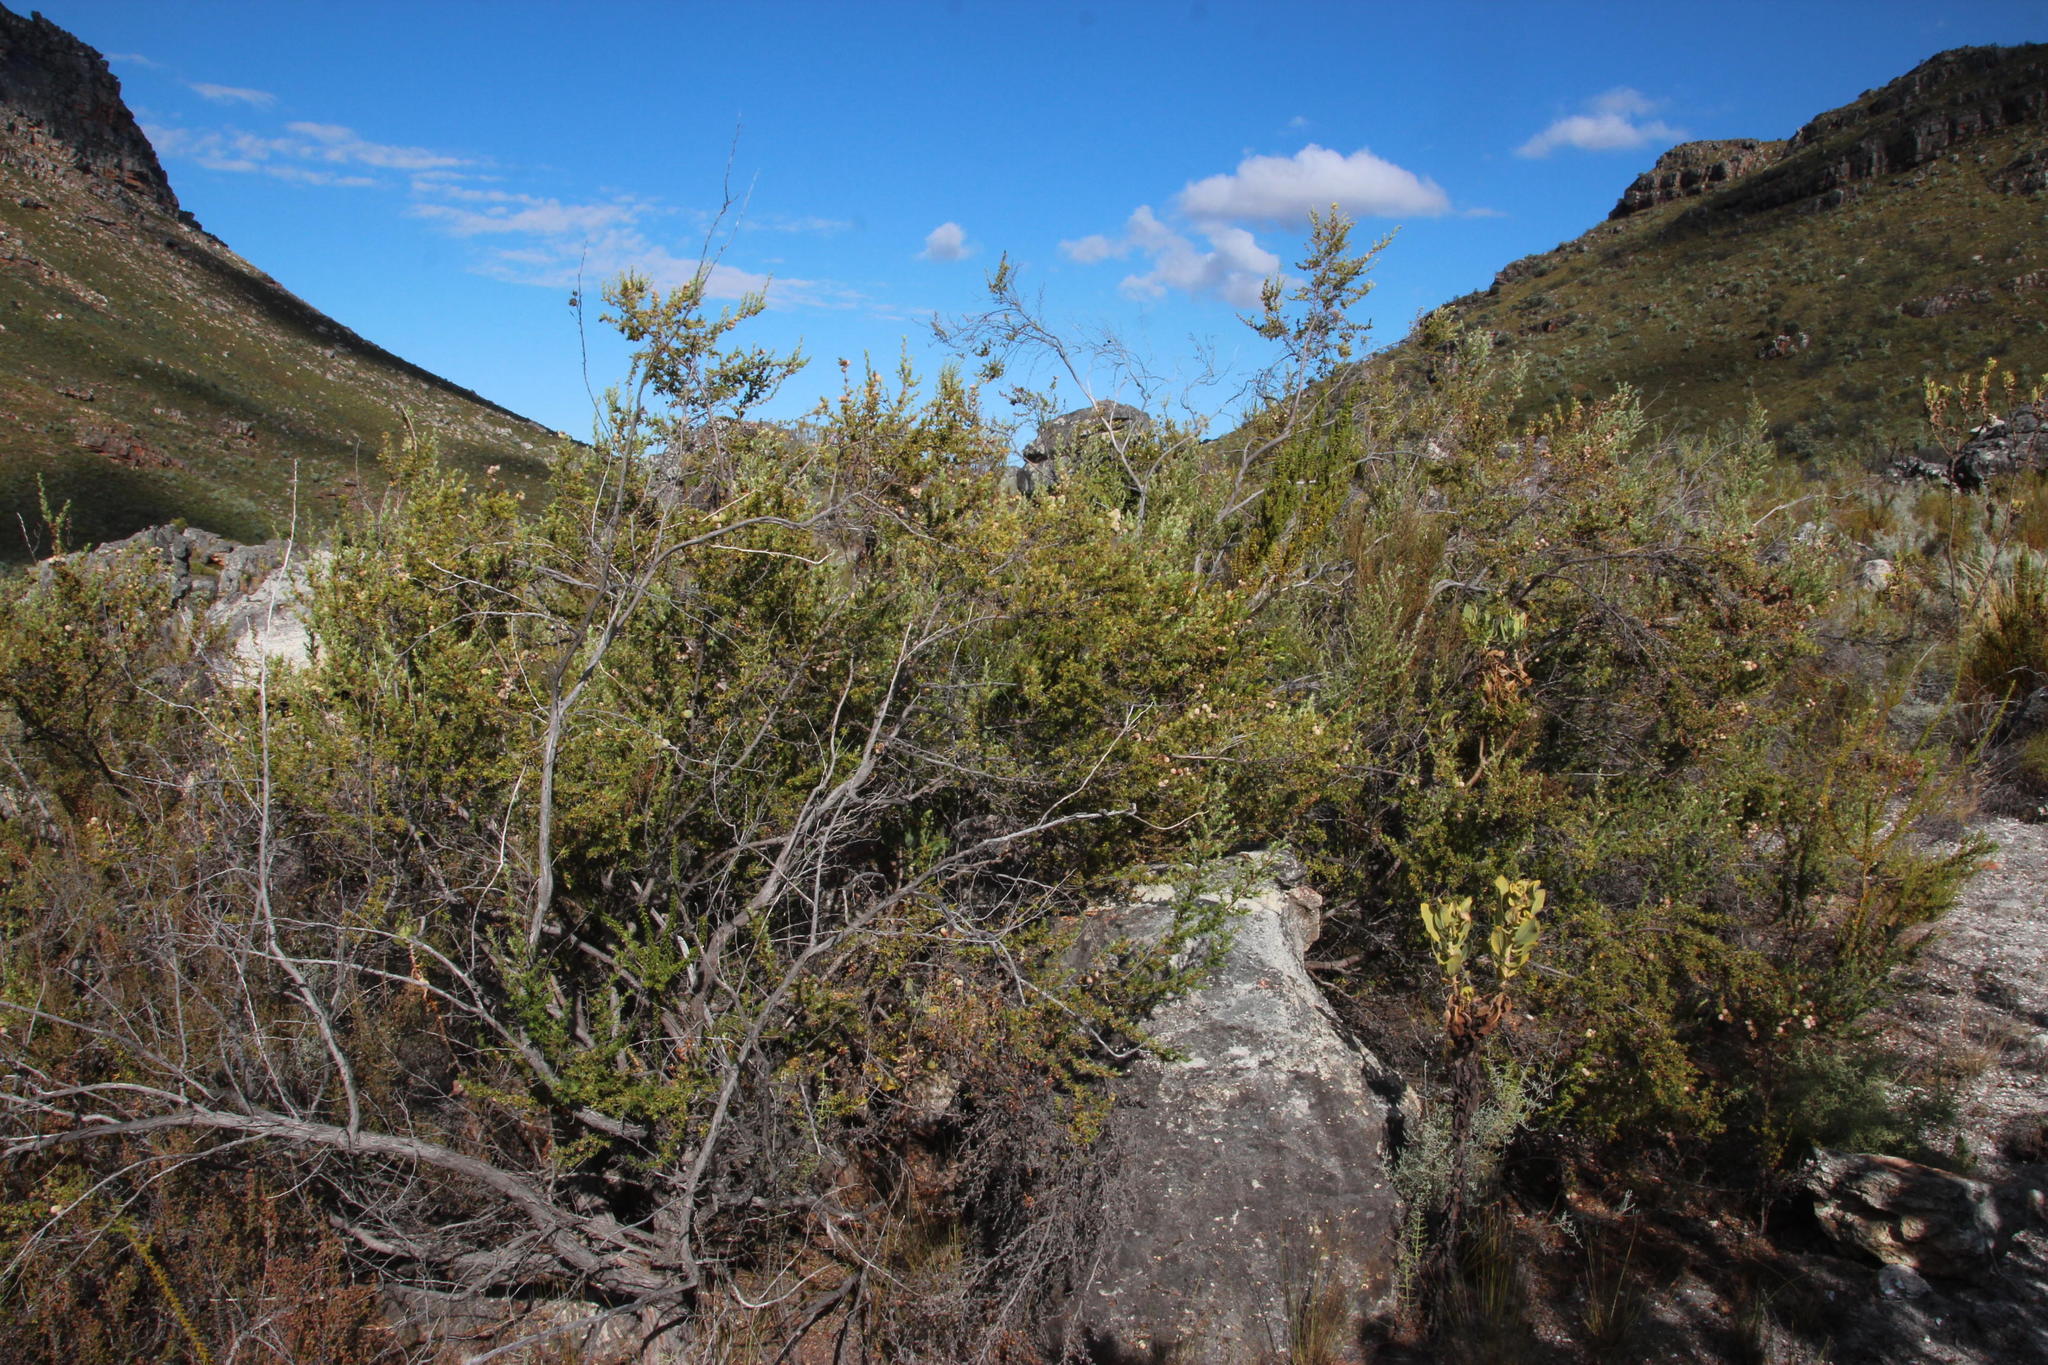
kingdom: Plantae
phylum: Tracheophyta
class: Magnoliopsida
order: Rosales
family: Rosaceae
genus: Cliffortia
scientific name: Cliffortia ruscifolia
